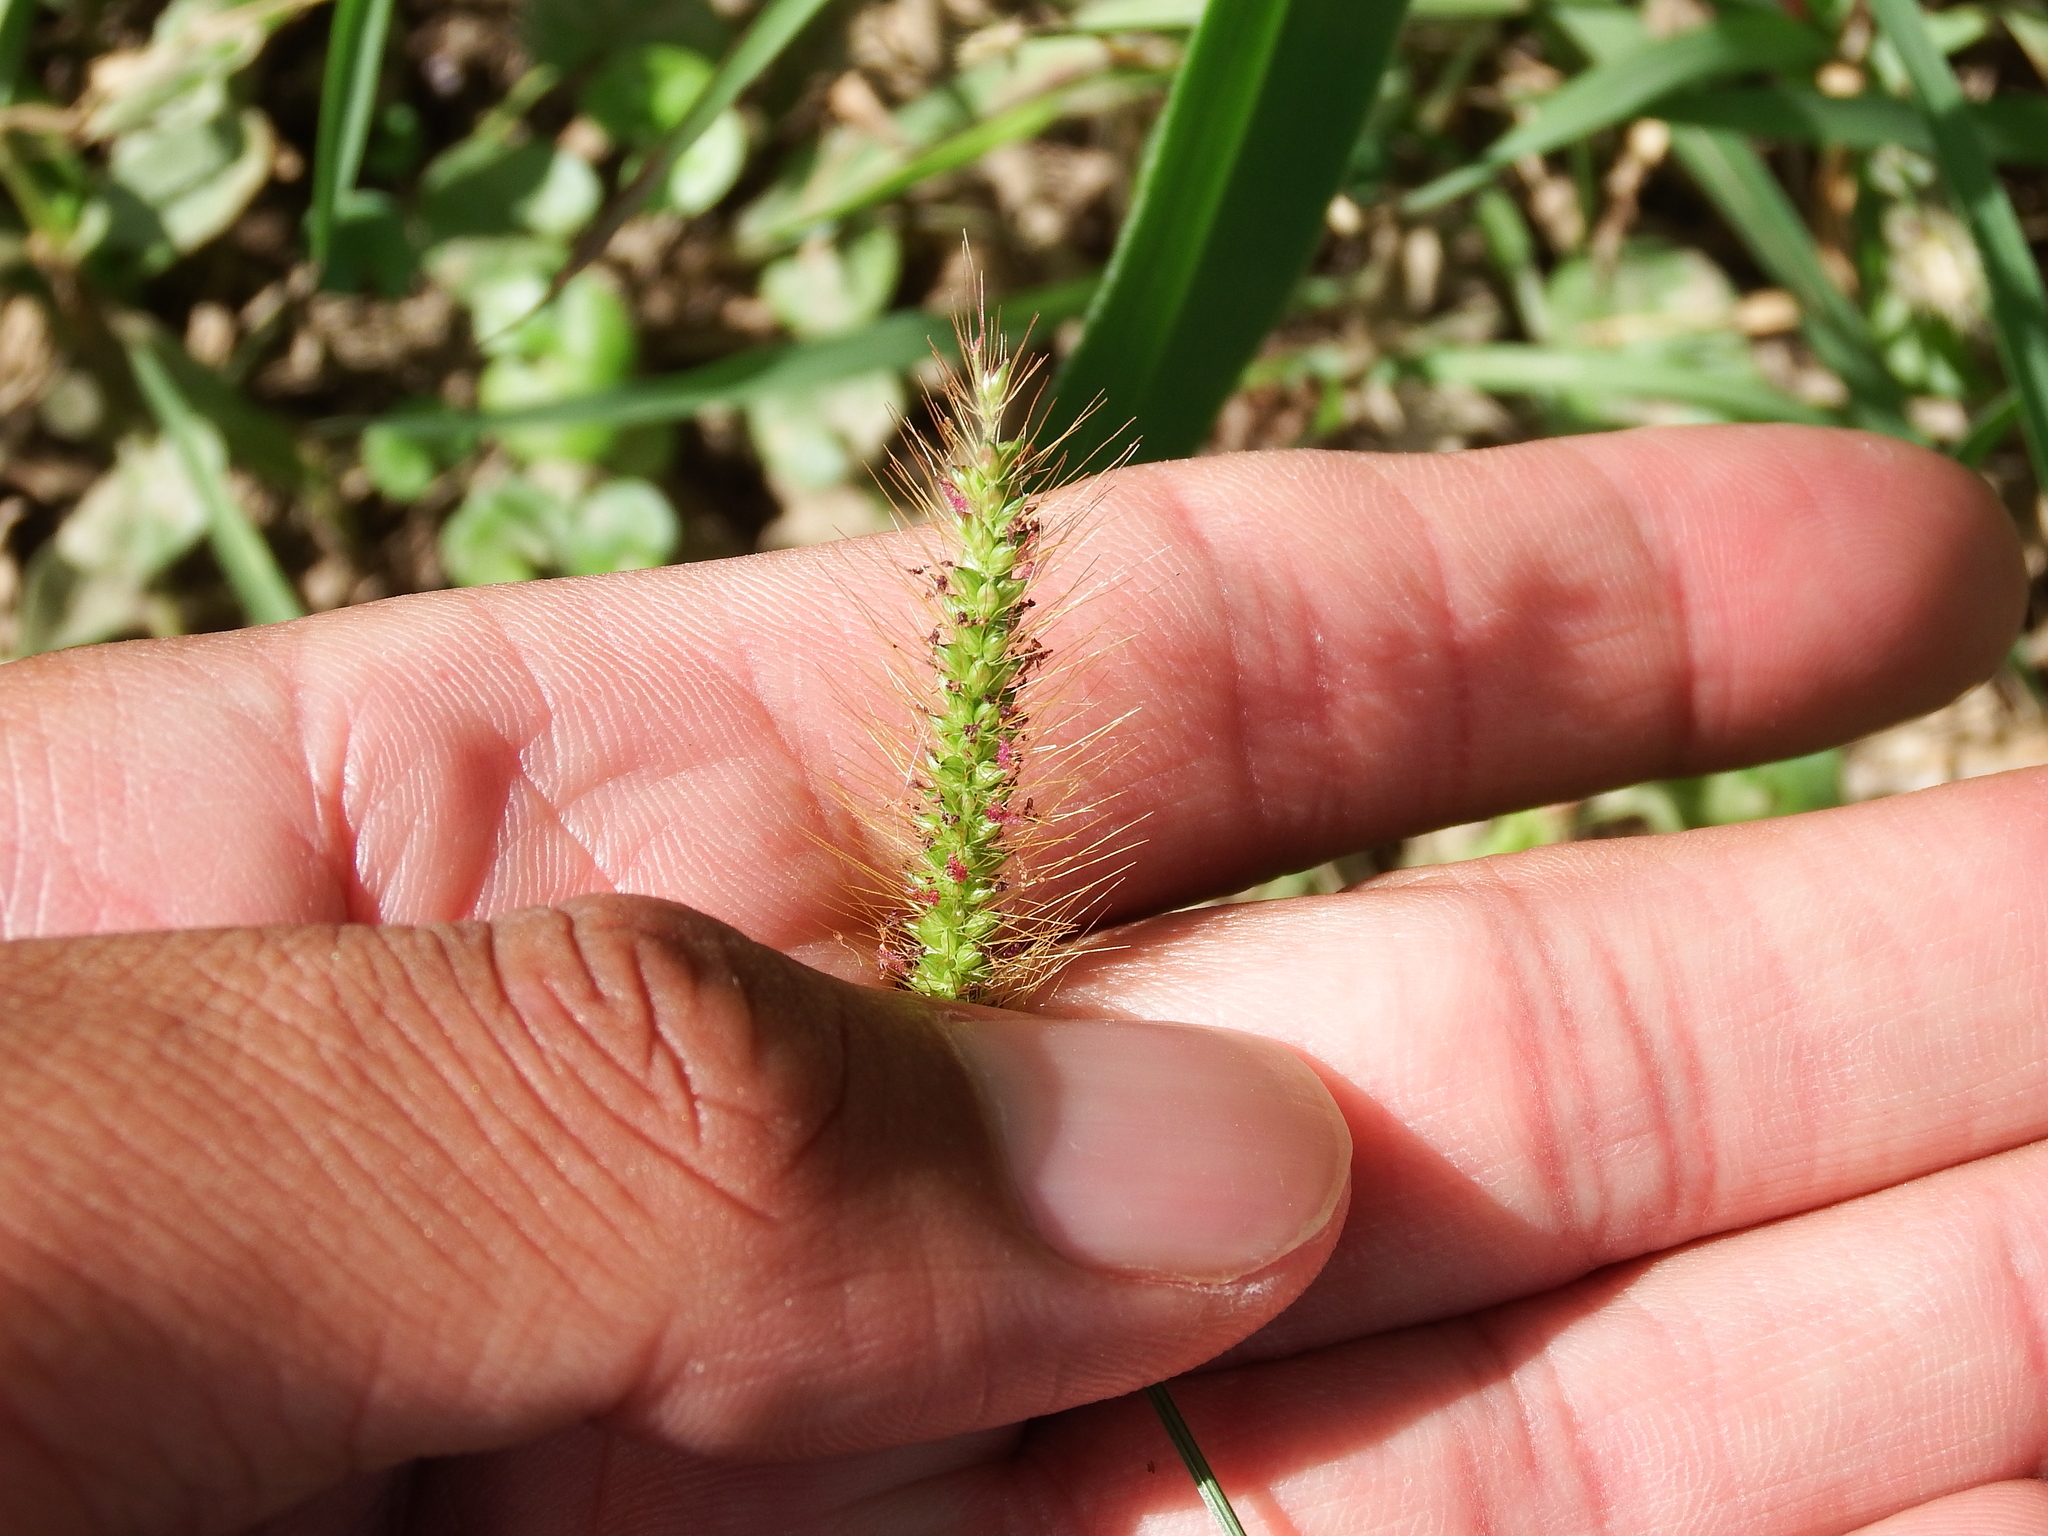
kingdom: Plantae
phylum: Tracheophyta
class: Liliopsida
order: Poales
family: Poaceae
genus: Setaria
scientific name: Setaria parviflora
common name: Knotroot bristle-grass
